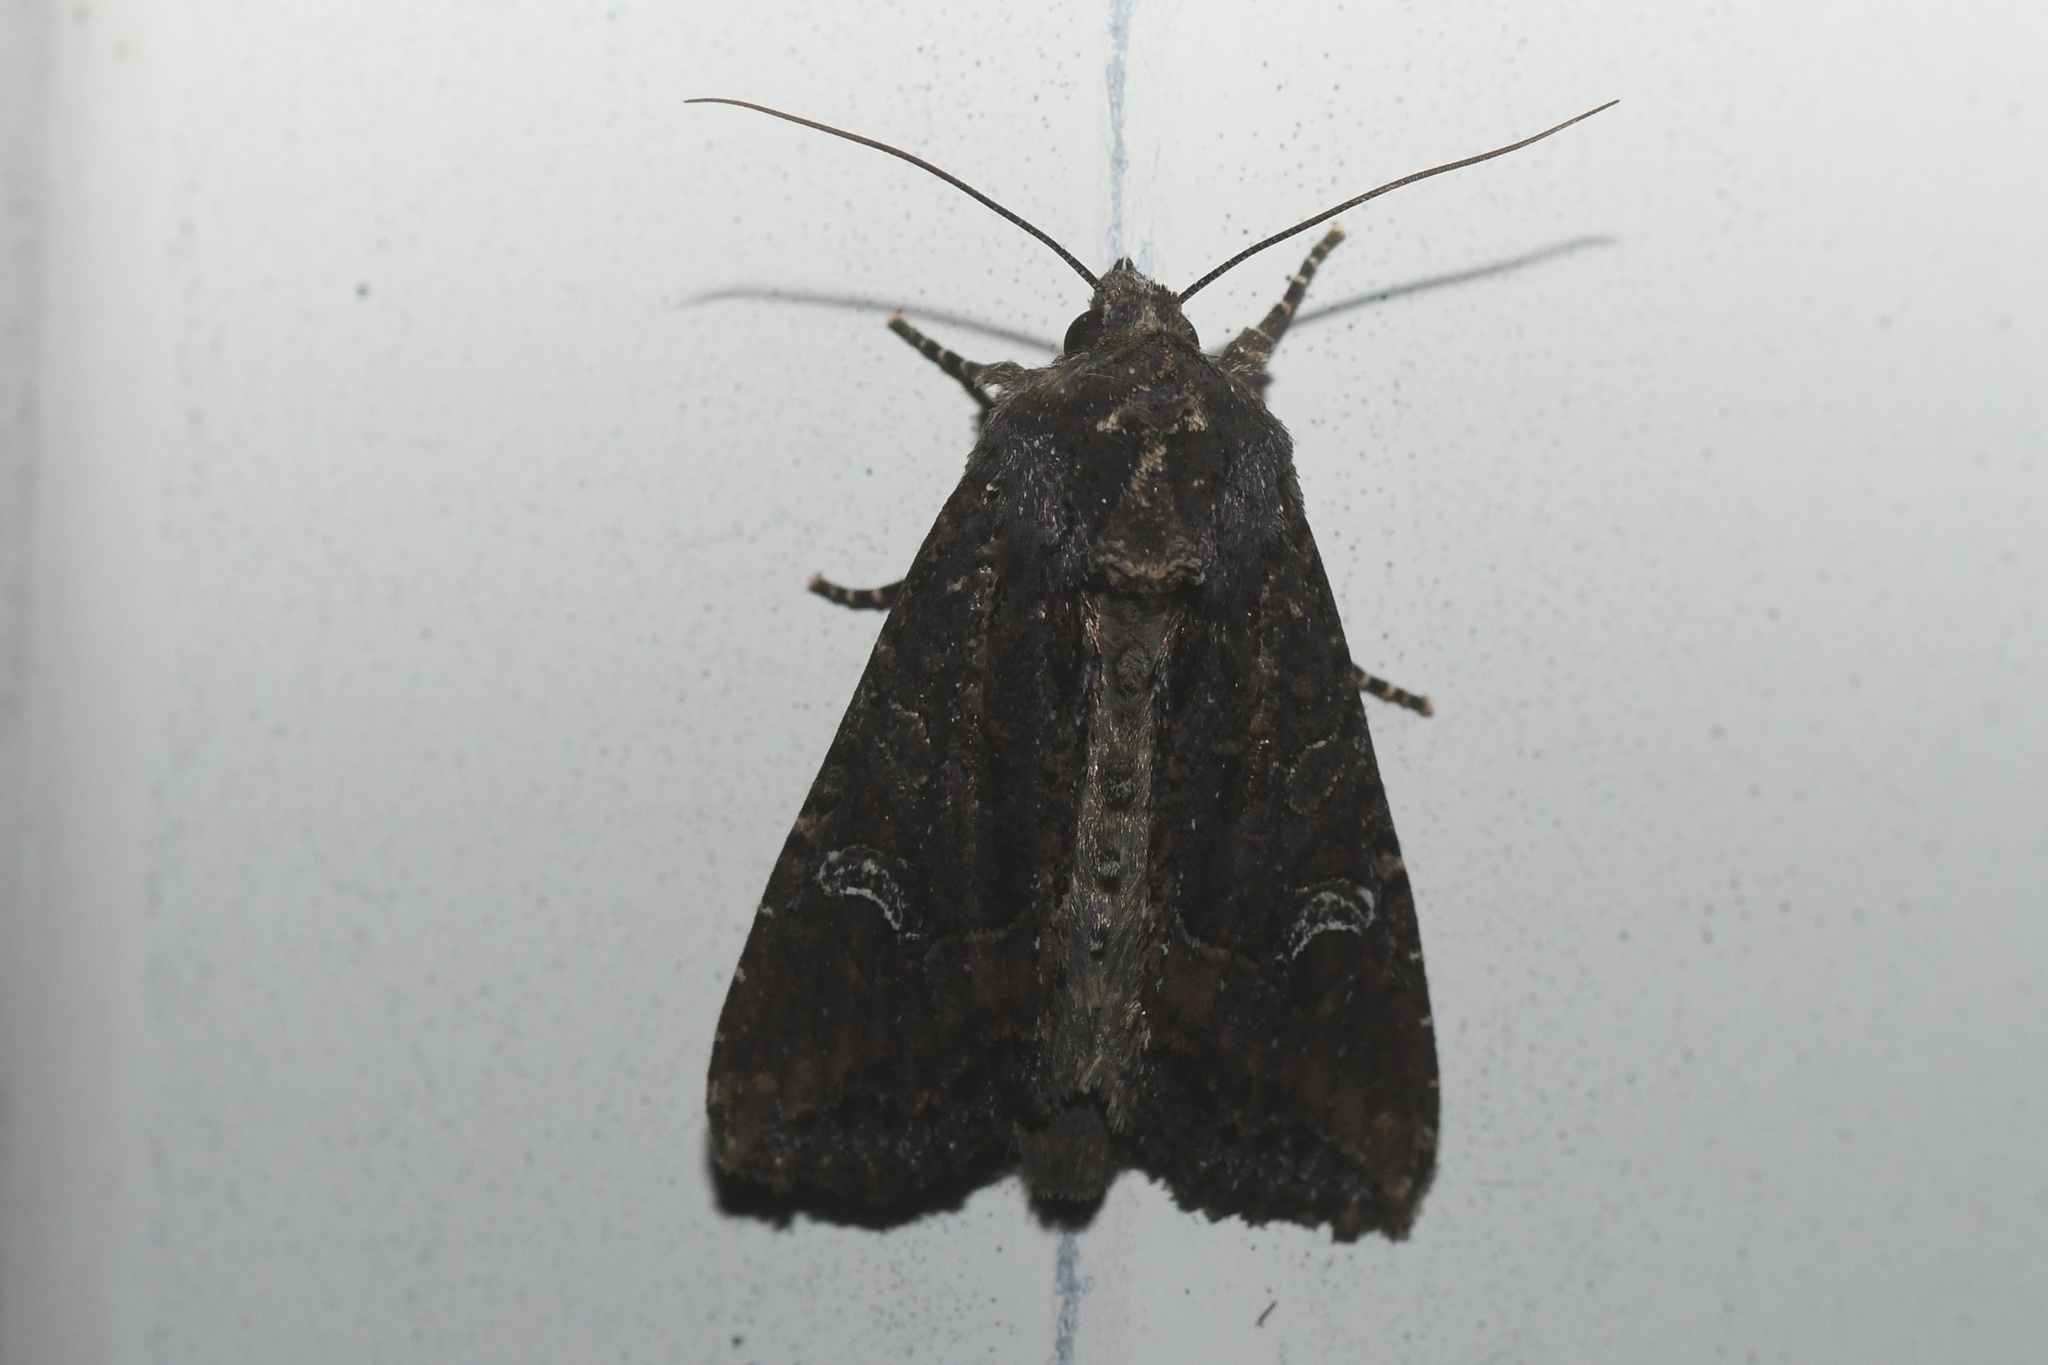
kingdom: Animalia
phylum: Arthropoda
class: Insecta
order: Lepidoptera
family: Noctuidae
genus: Helotropha
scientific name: Helotropha reniformis
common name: Kidney-spotted rustic moth
